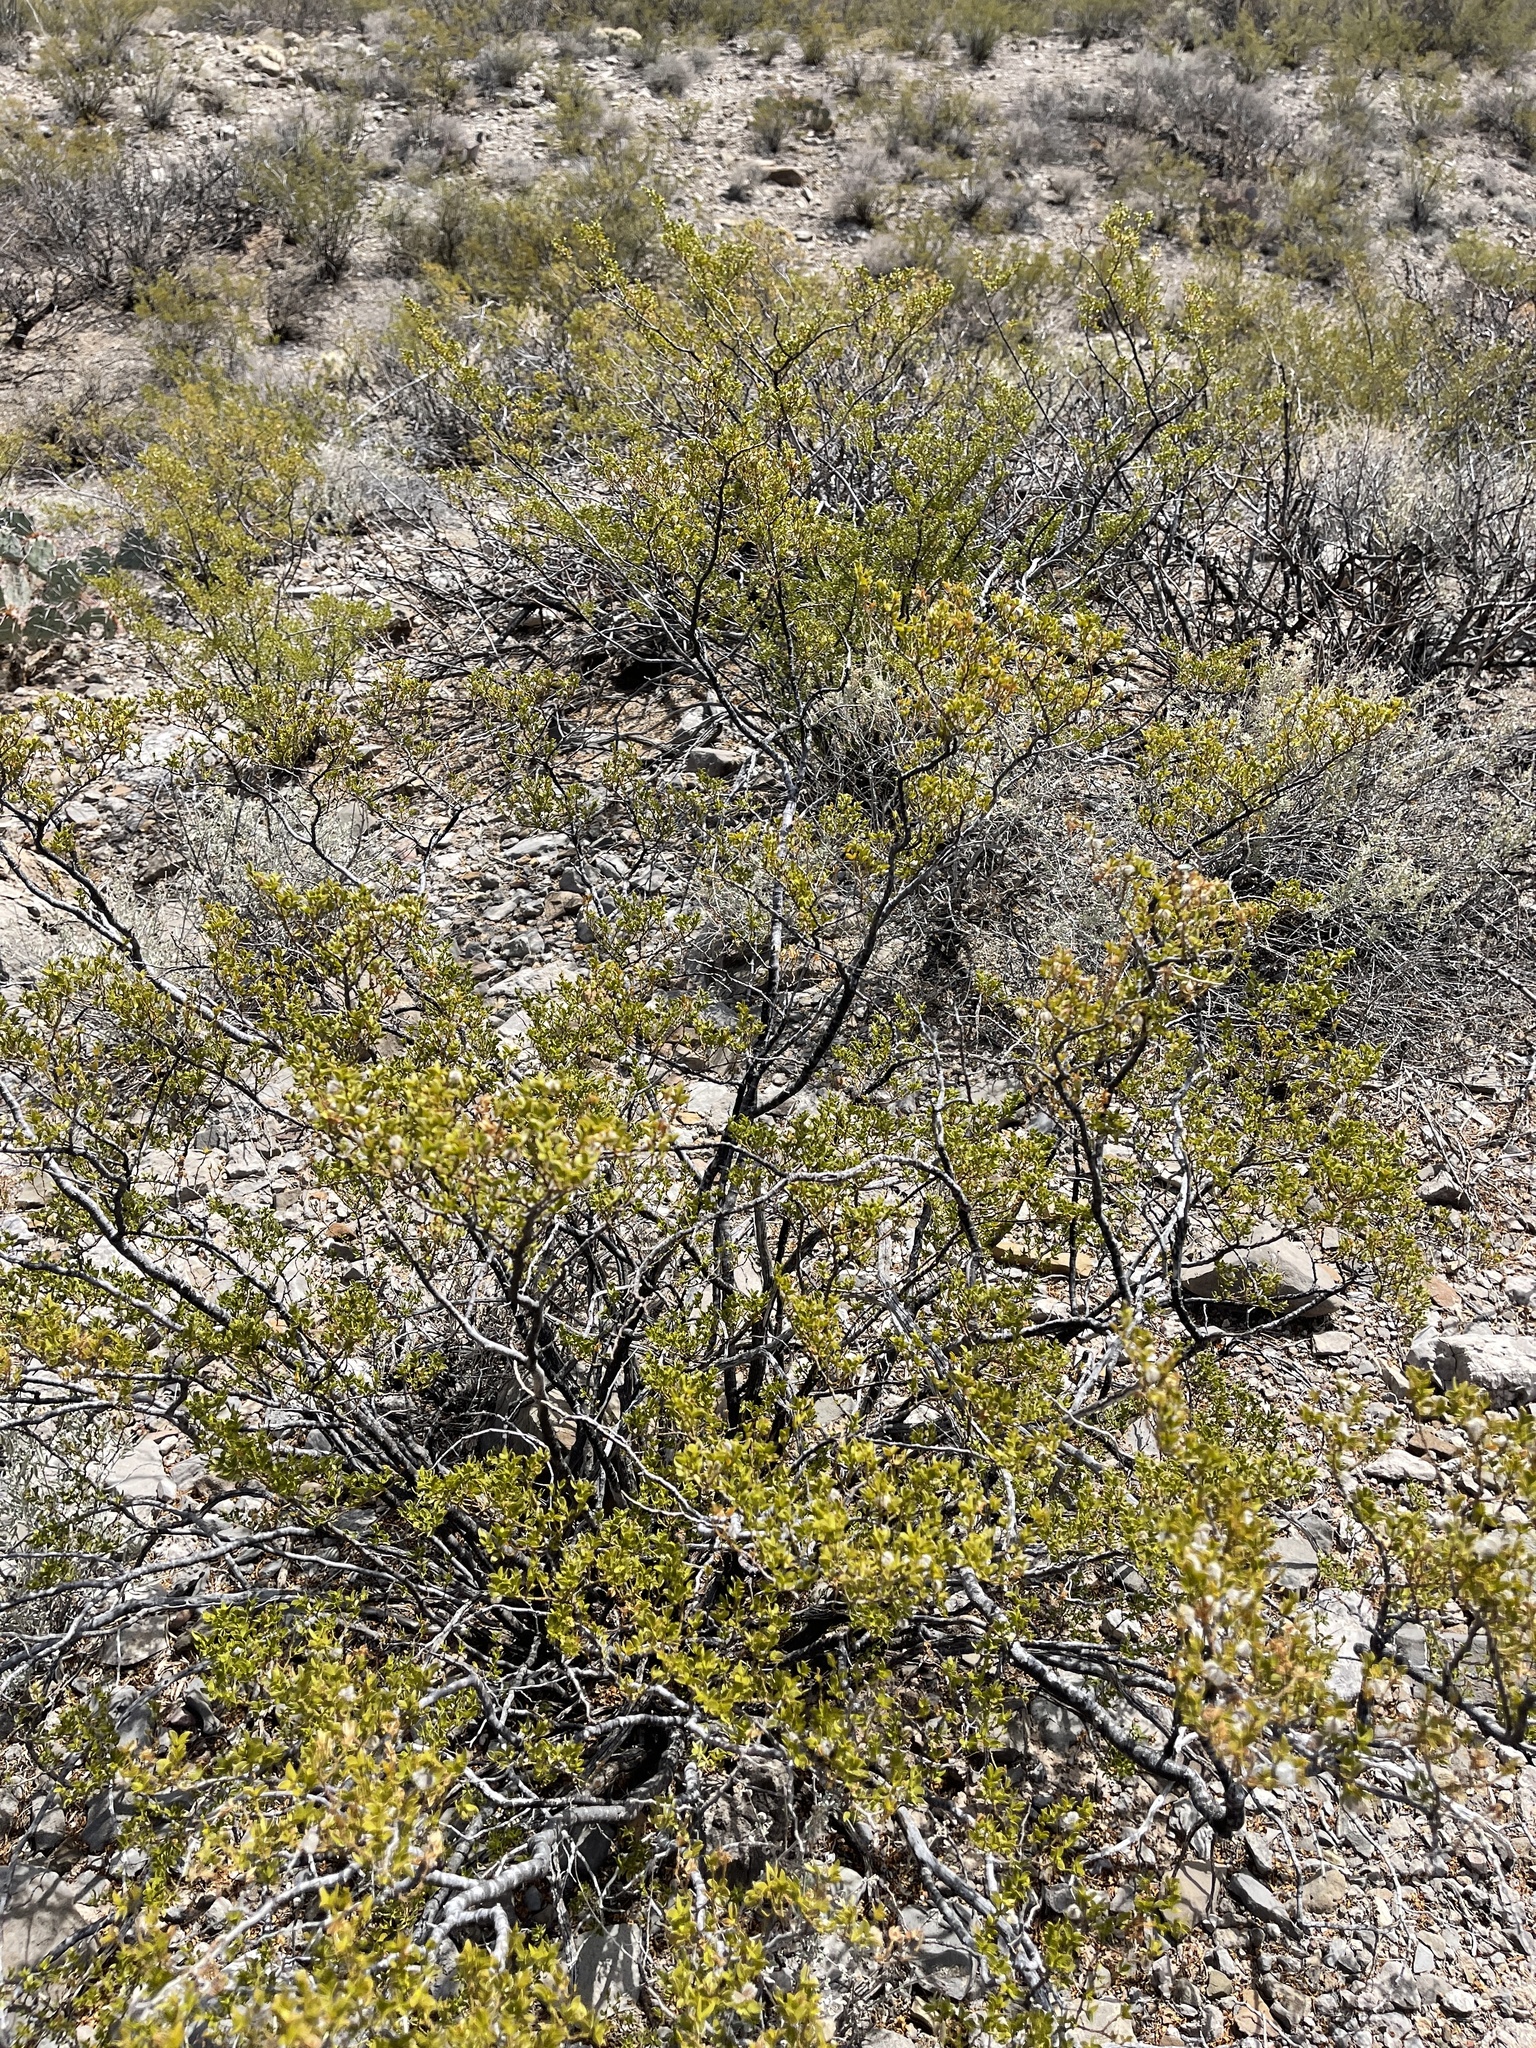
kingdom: Plantae
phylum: Tracheophyta
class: Magnoliopsida
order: Zygophyllales
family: Zygophyllaceae
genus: Larrea
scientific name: Larrea tridentata
